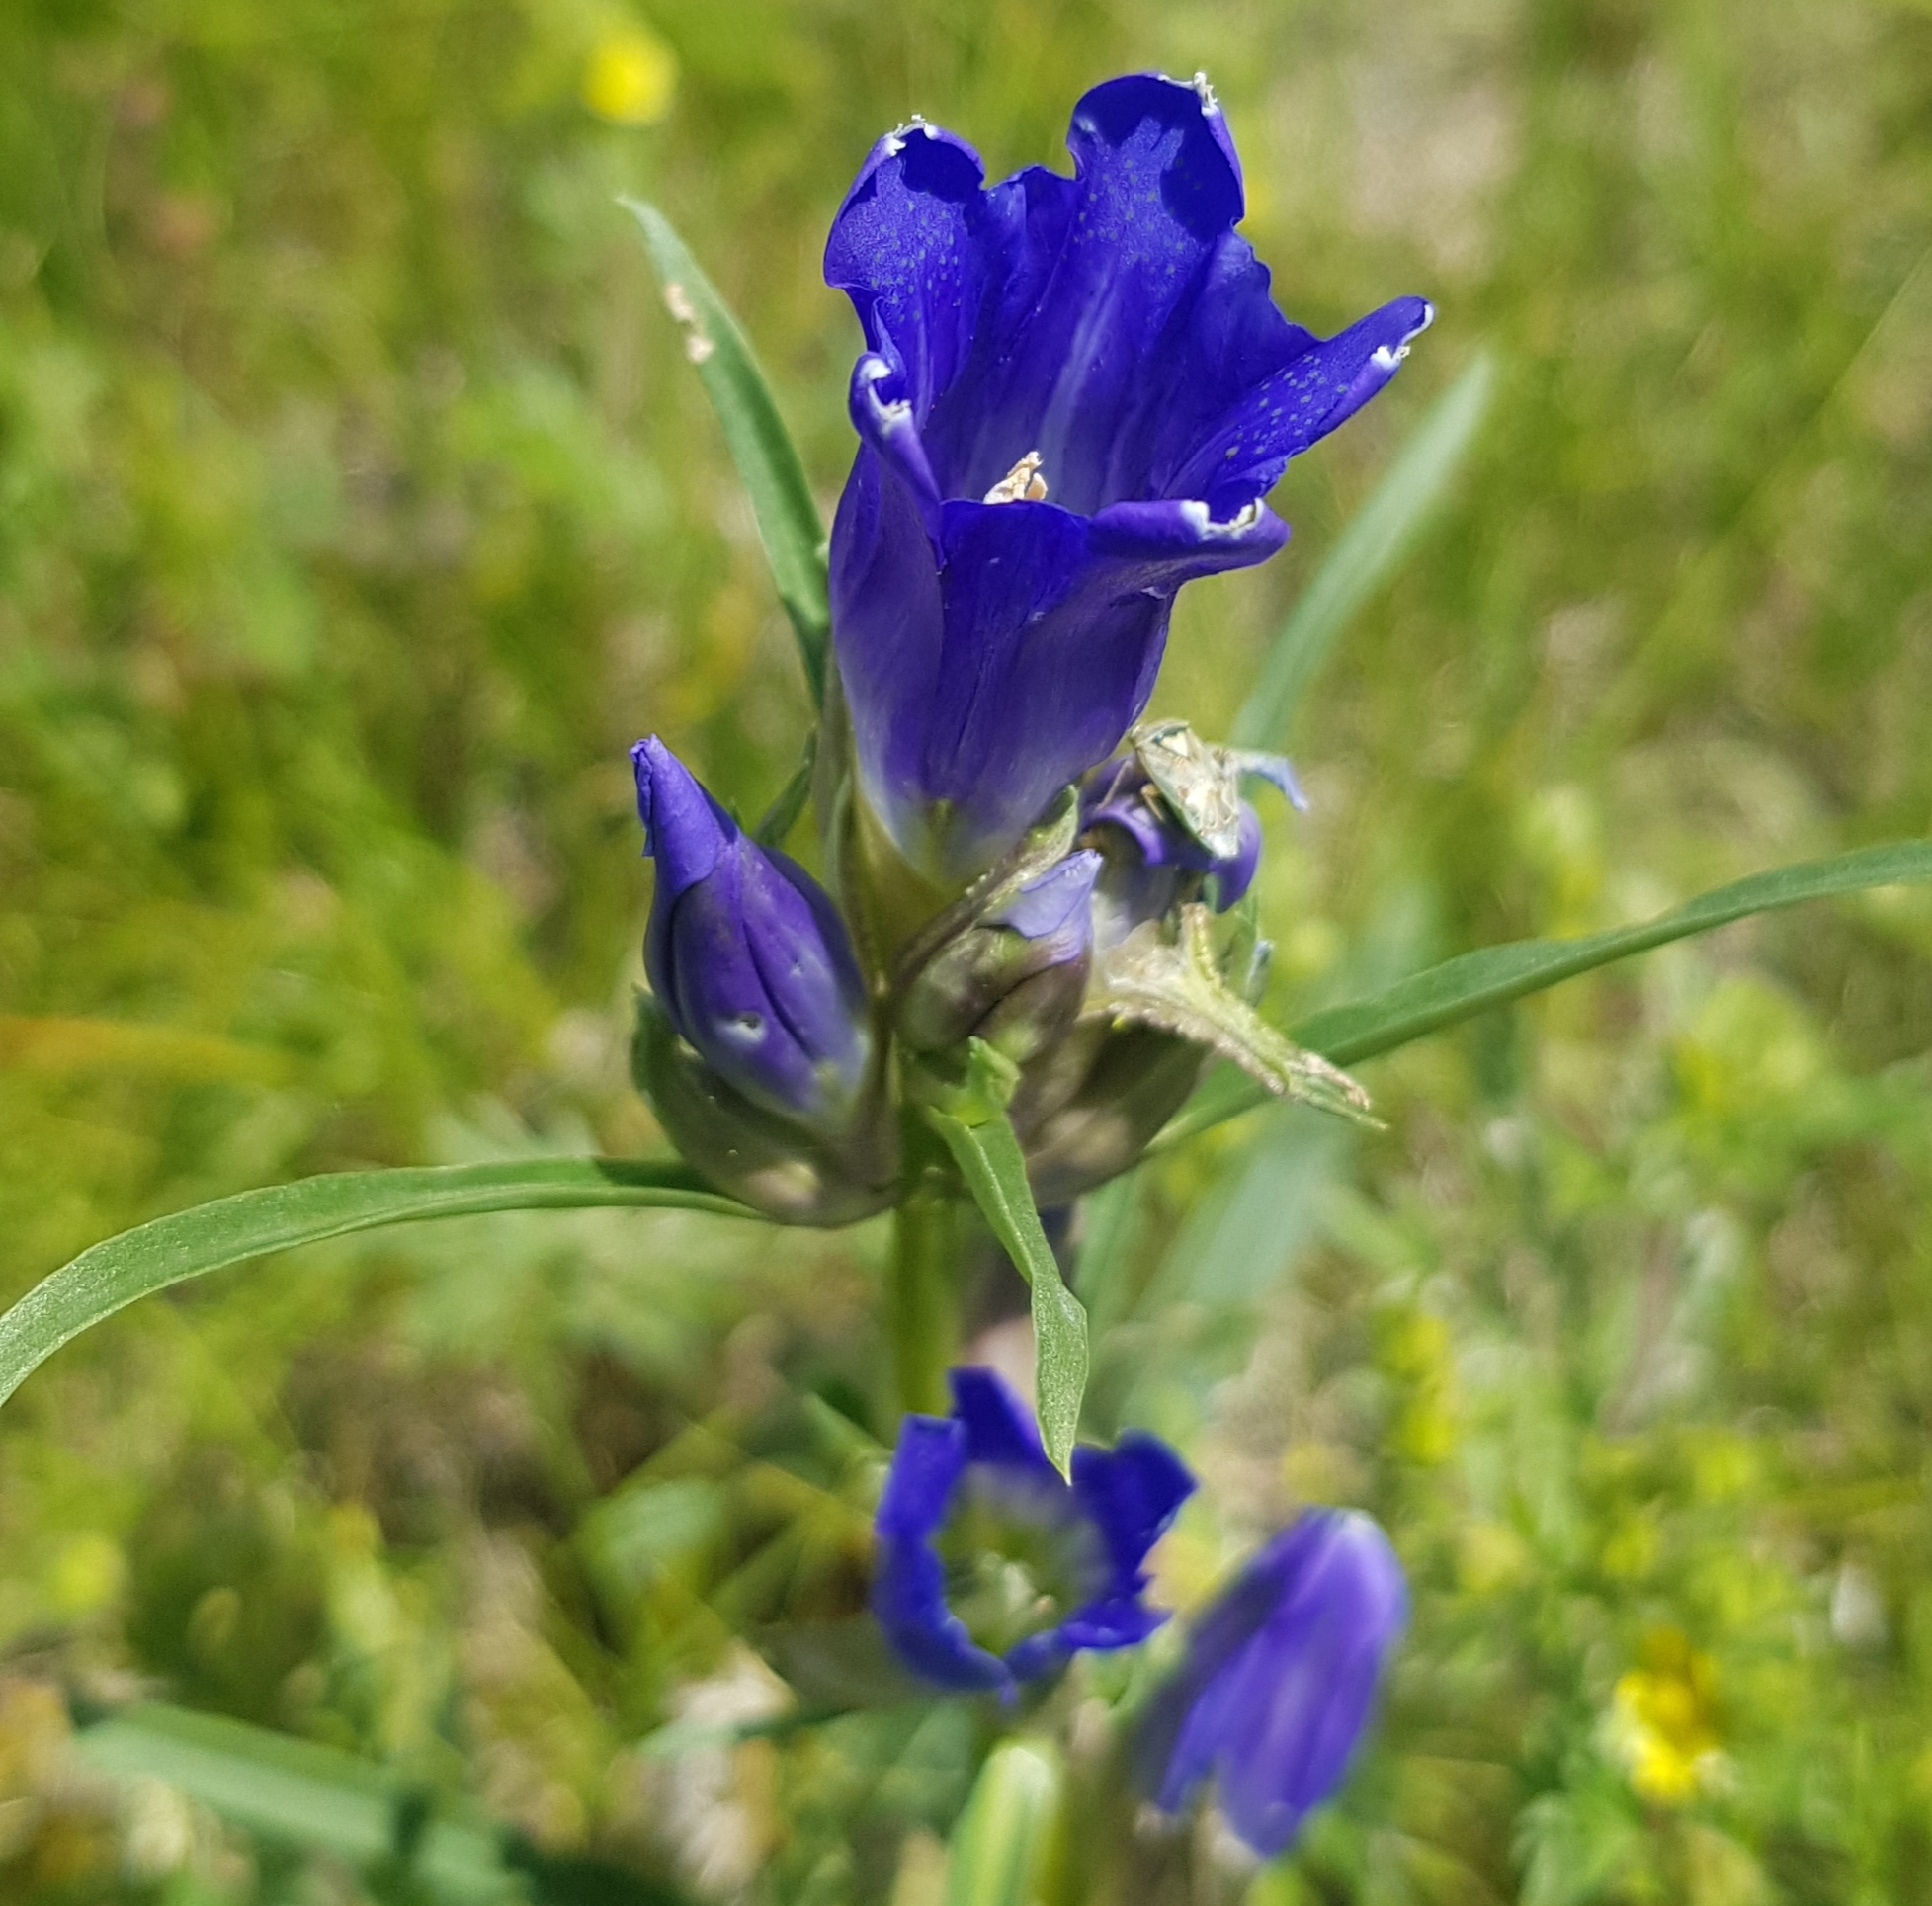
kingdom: Plantae
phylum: Tracheophyta
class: Magnoliopsida
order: Gentianales
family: Gentianaceae
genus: Gentiana
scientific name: Gentiana decumbens
